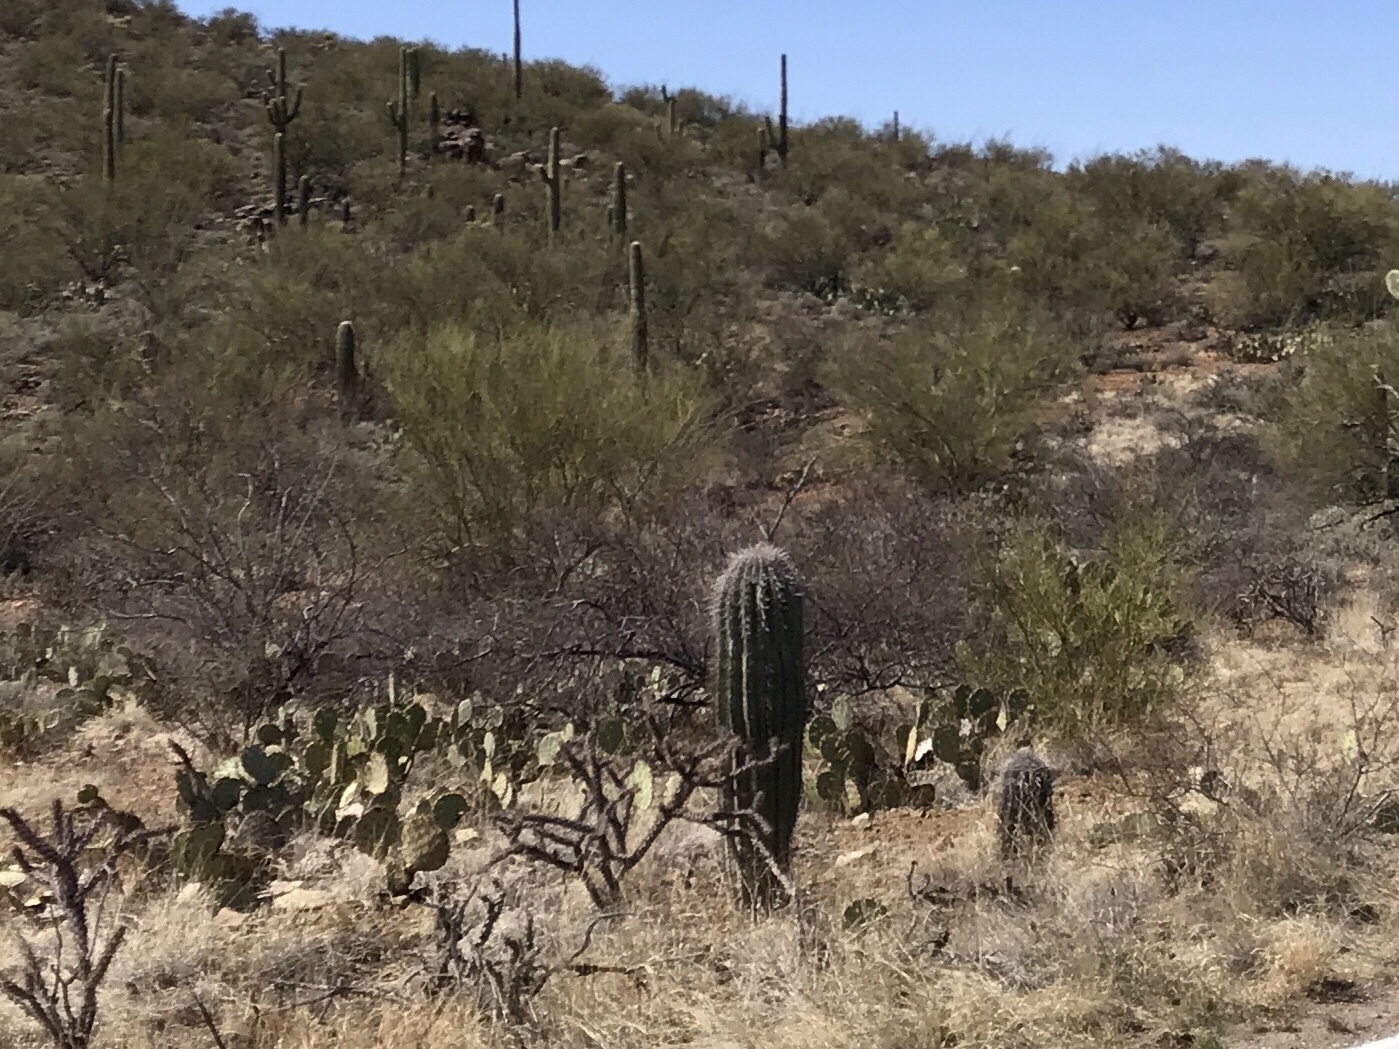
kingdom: Plantae
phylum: Tracheophyta
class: Magnoliopsida
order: Caryophyllales
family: Cactaceae
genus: Carnegiea
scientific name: Carnegiea gigantea
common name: Saguaro
